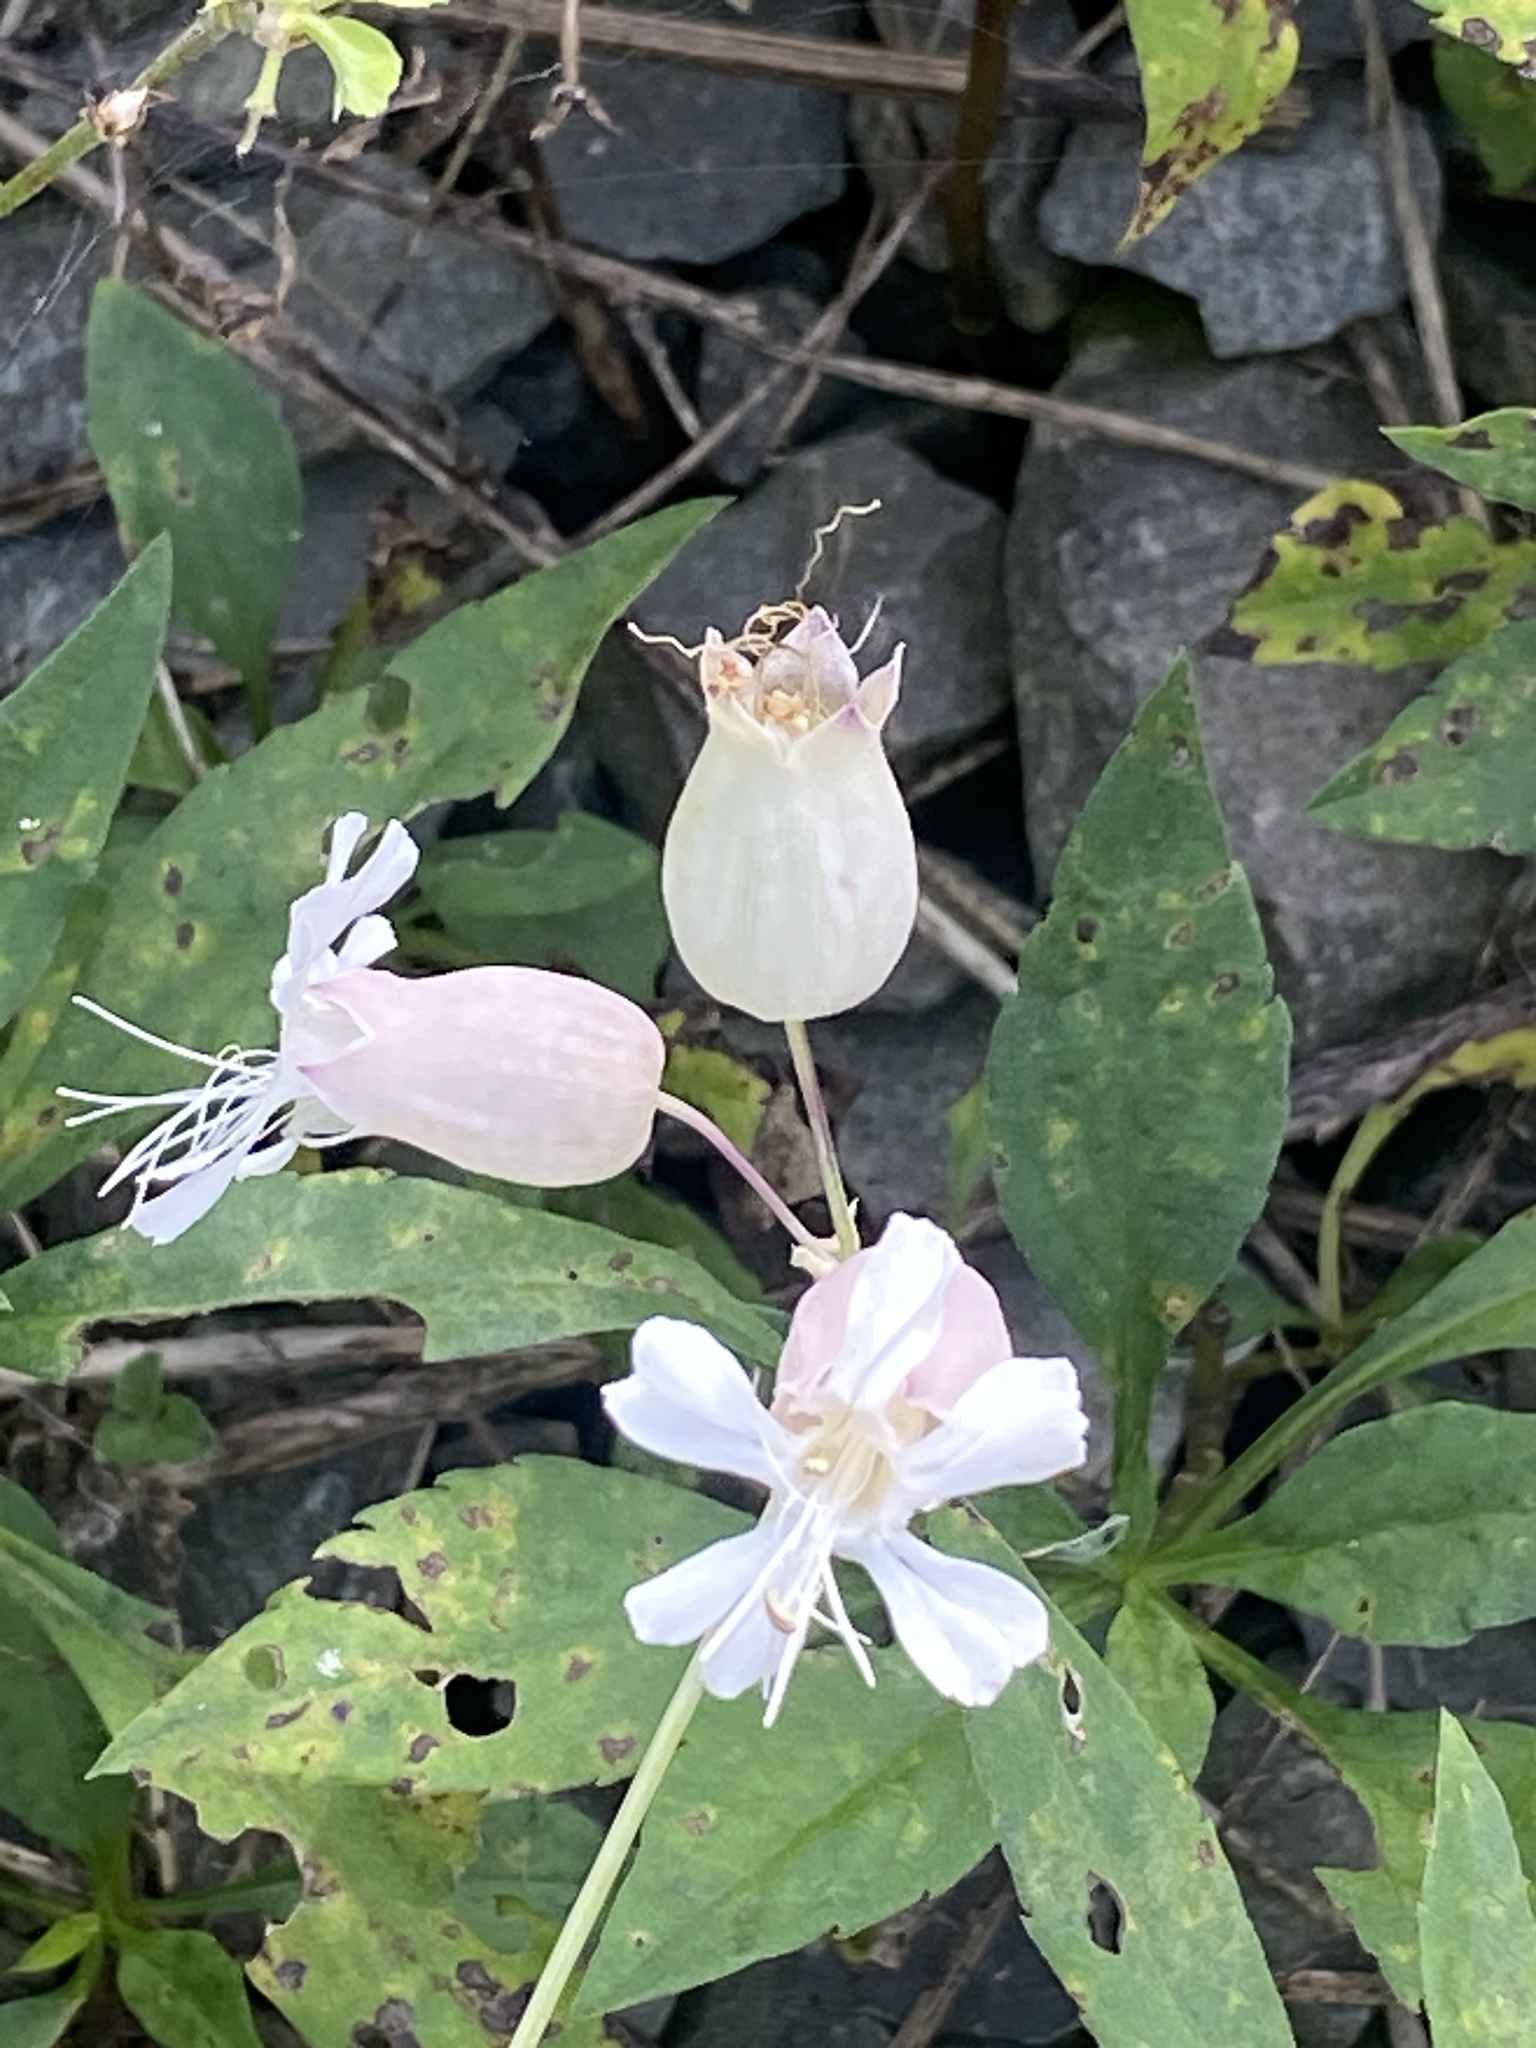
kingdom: Plantae
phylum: Tracheophyta
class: Magnoliopsida
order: Caryophyllales
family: Caryophyllaceae
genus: Silene
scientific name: Silene vulgaris
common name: Bladder campion
